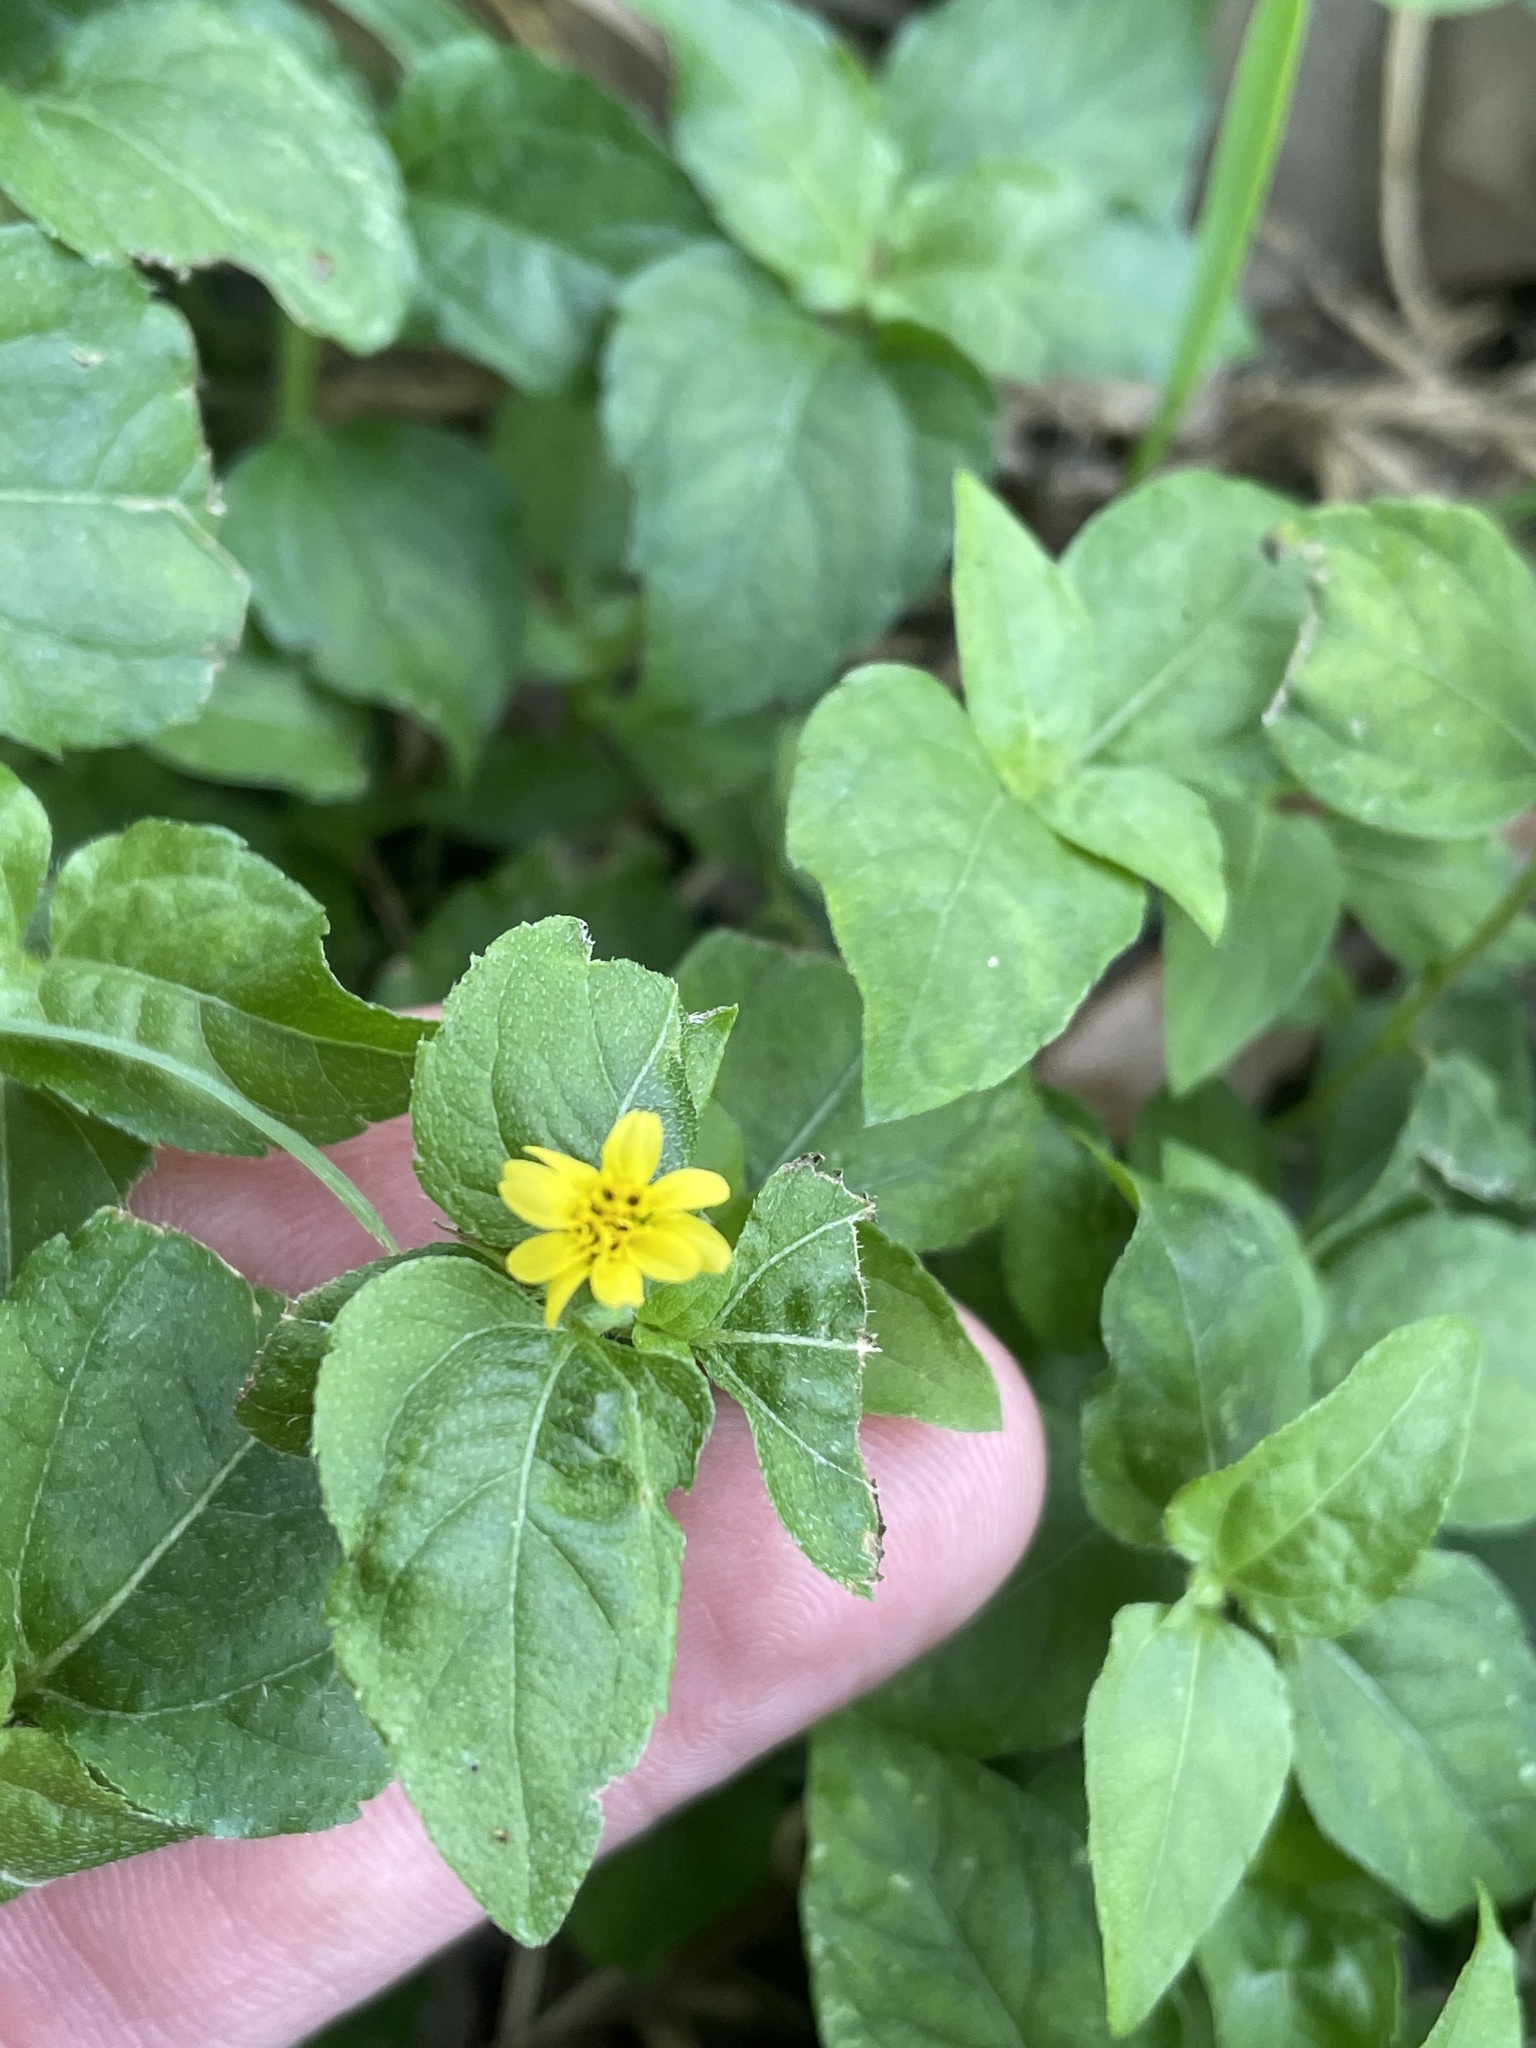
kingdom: Plantae
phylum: Tracheophyta
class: Magnoliopsida
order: Asterales
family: Asteraceae
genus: Calyptocarpus
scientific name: Calyptocarpus vialis
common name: Straggler daisy
